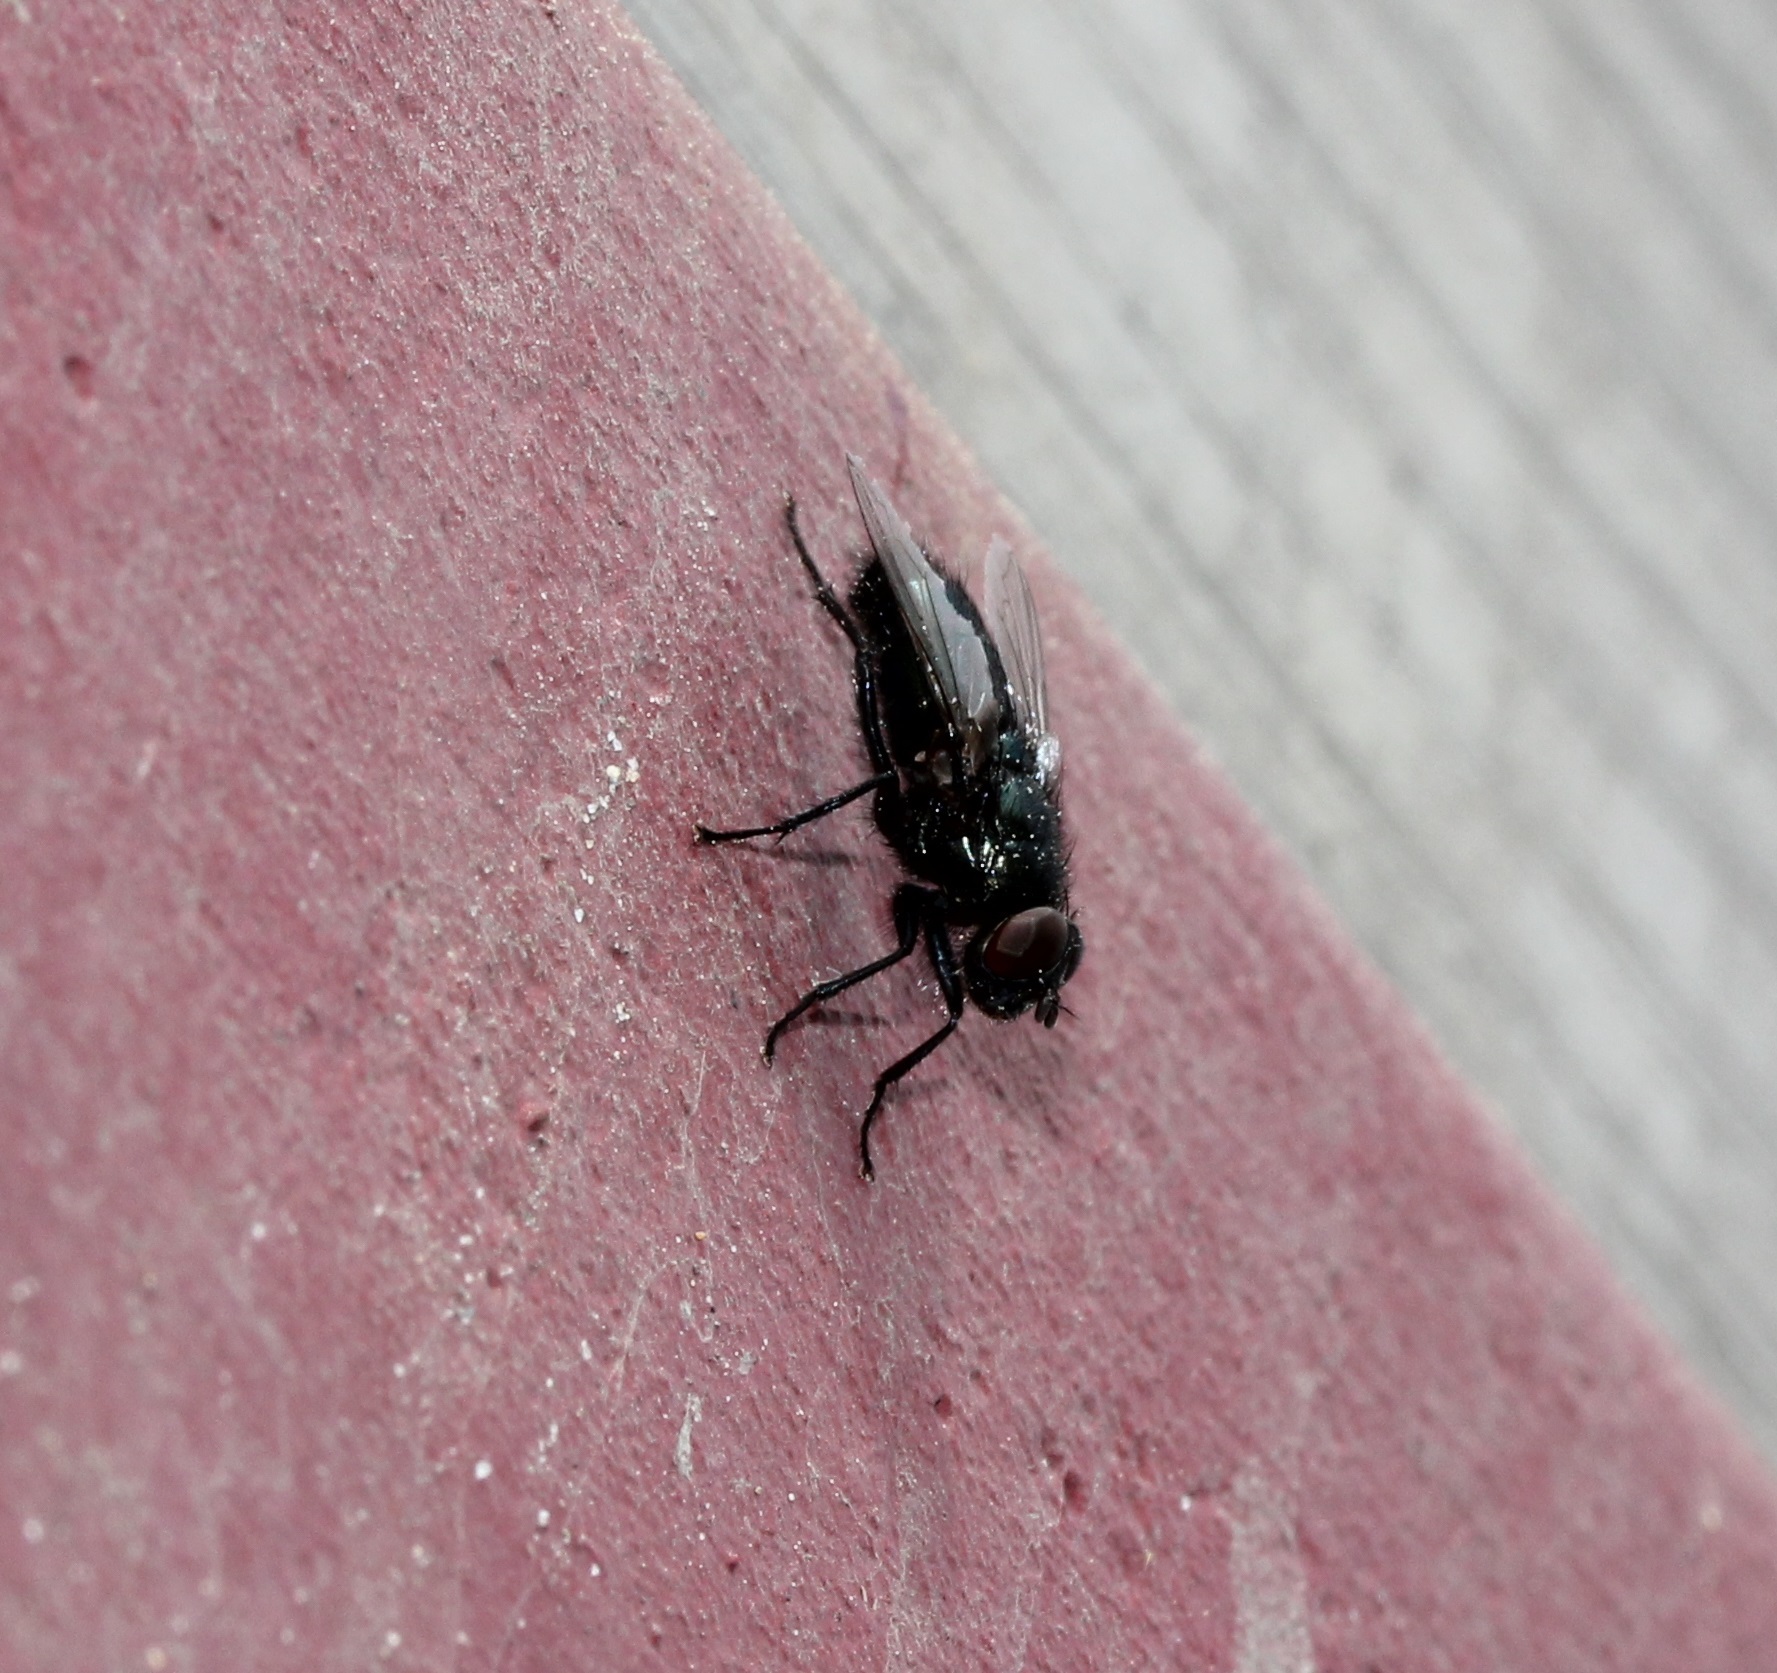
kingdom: Animalia
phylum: Arthropoda
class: Insecta
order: Diptera
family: Calliphoridae
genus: Protophormia
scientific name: Protophormia terraenovae
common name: Blackbottle
